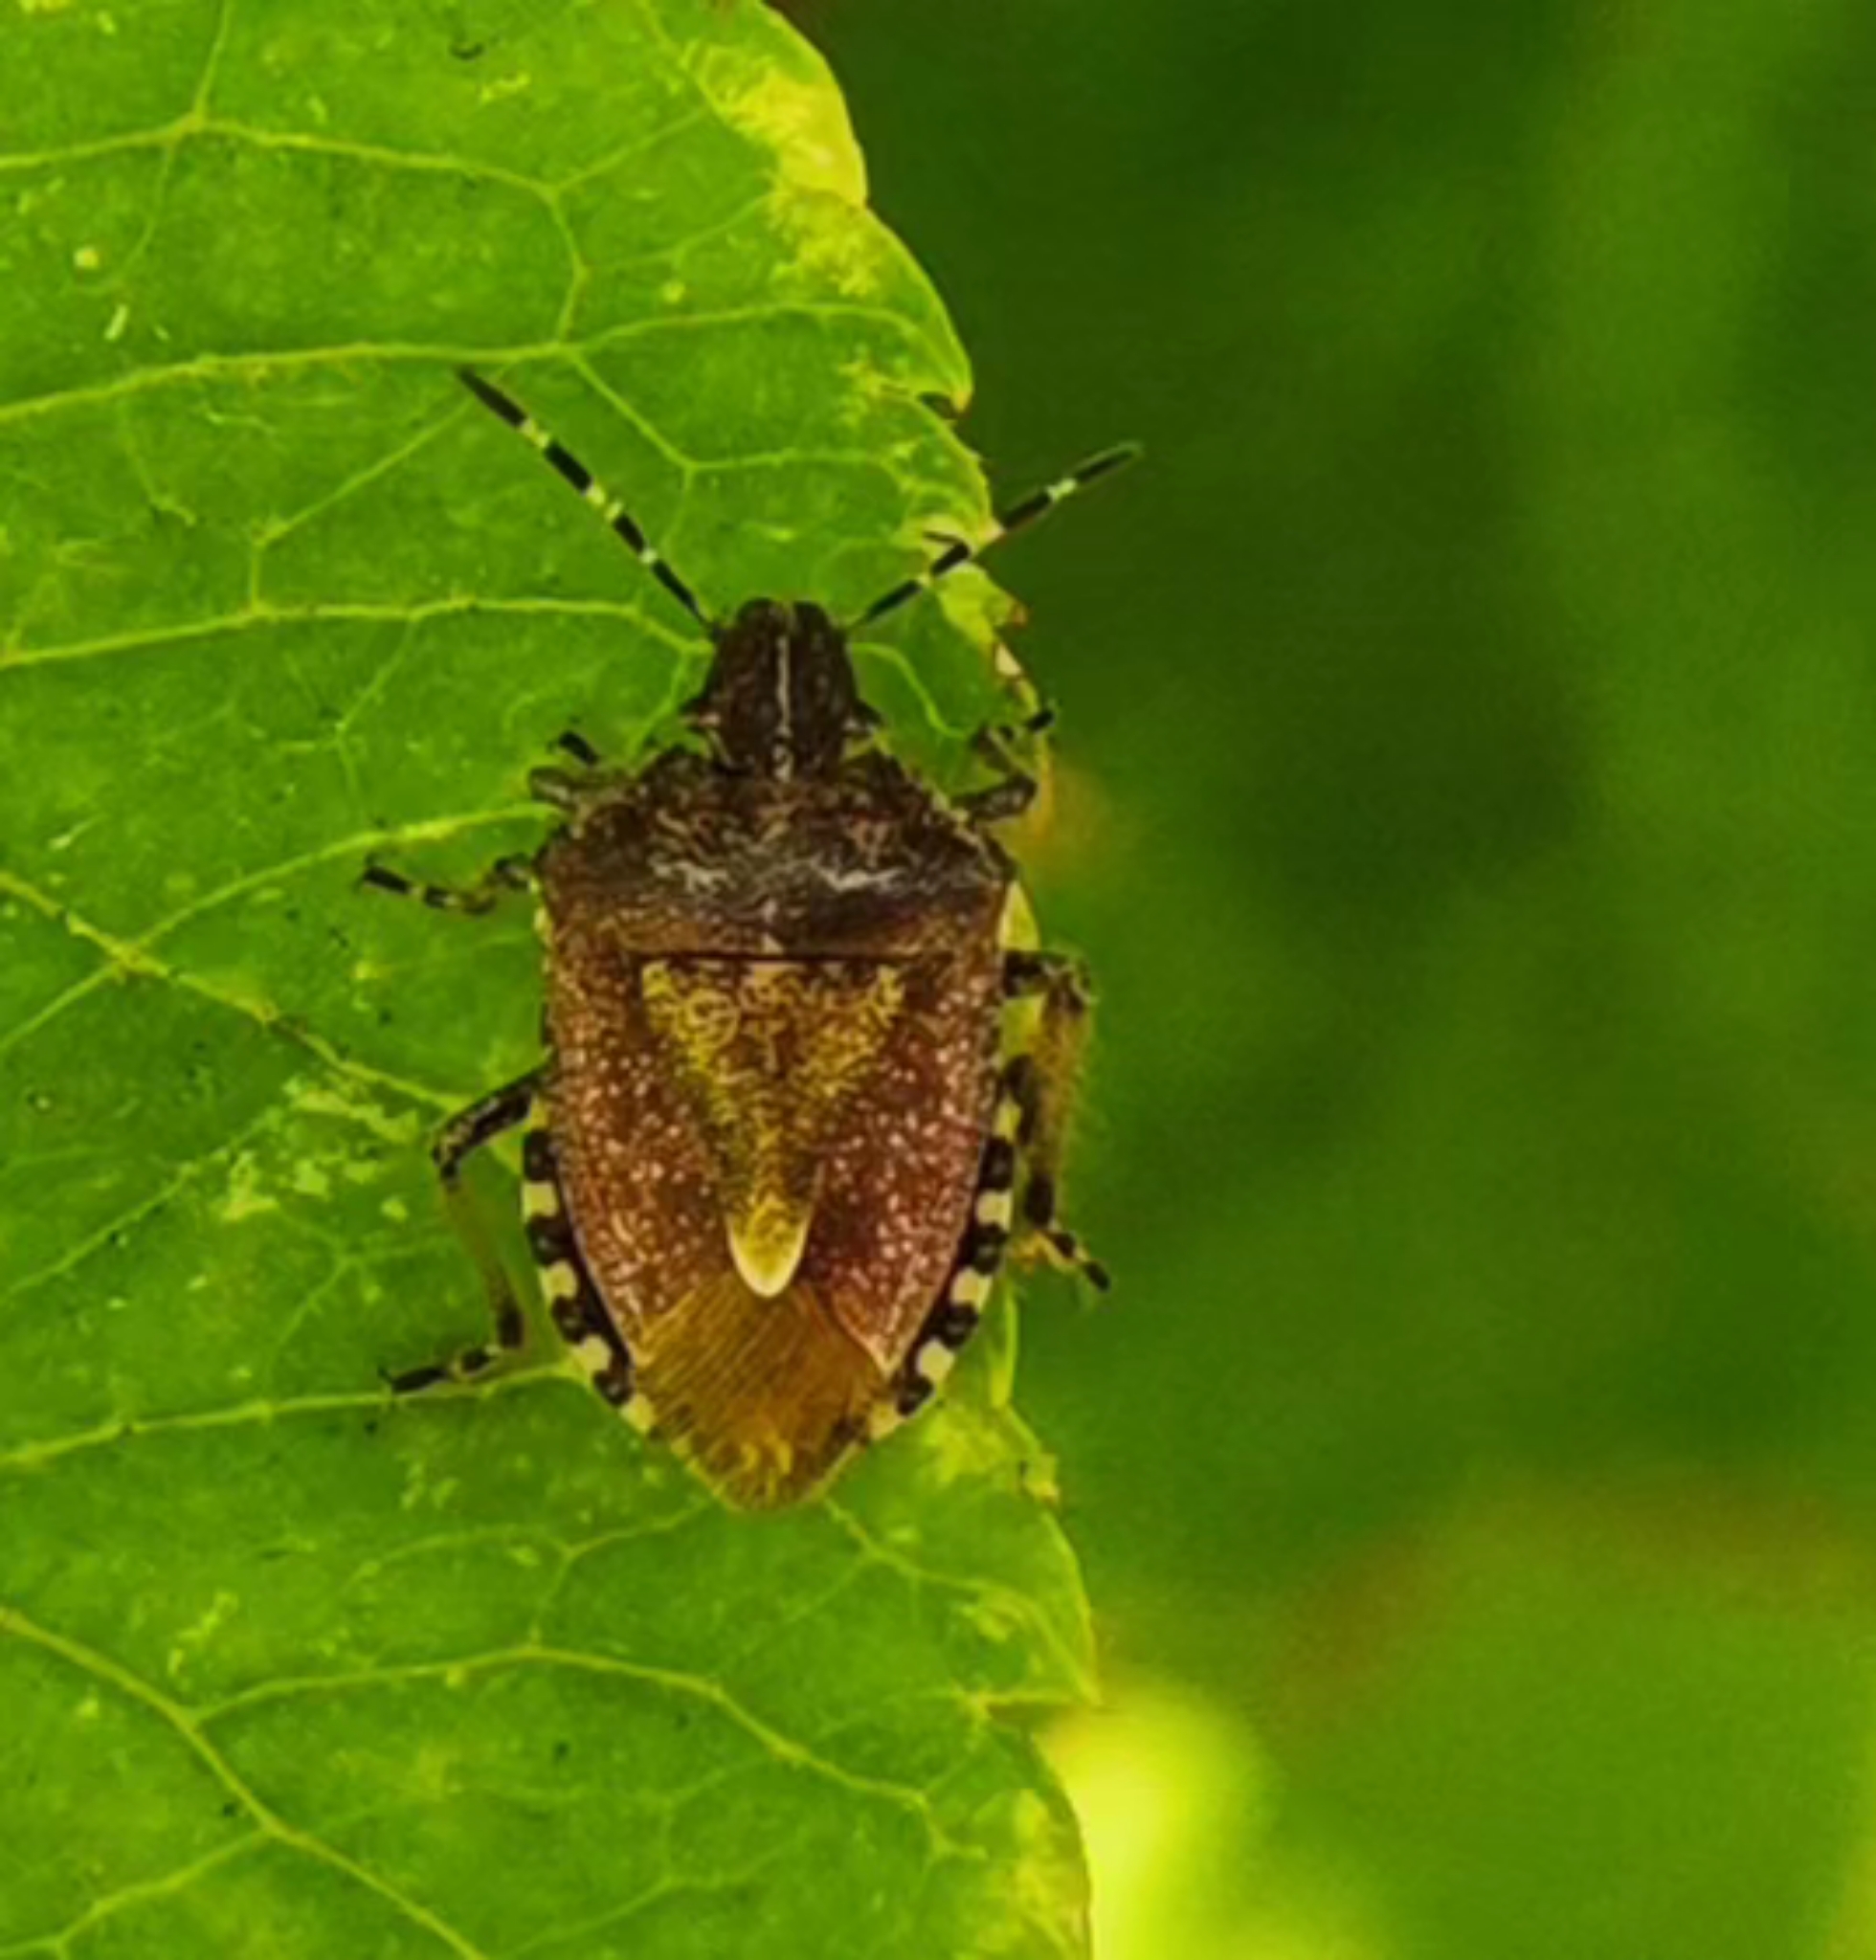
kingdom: Animalia
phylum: Arthropoda
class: Insecta
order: Hemiptera
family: Pentatomidae
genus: Dolycoris
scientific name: Dolycoris baccarum
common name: Sloe bug
